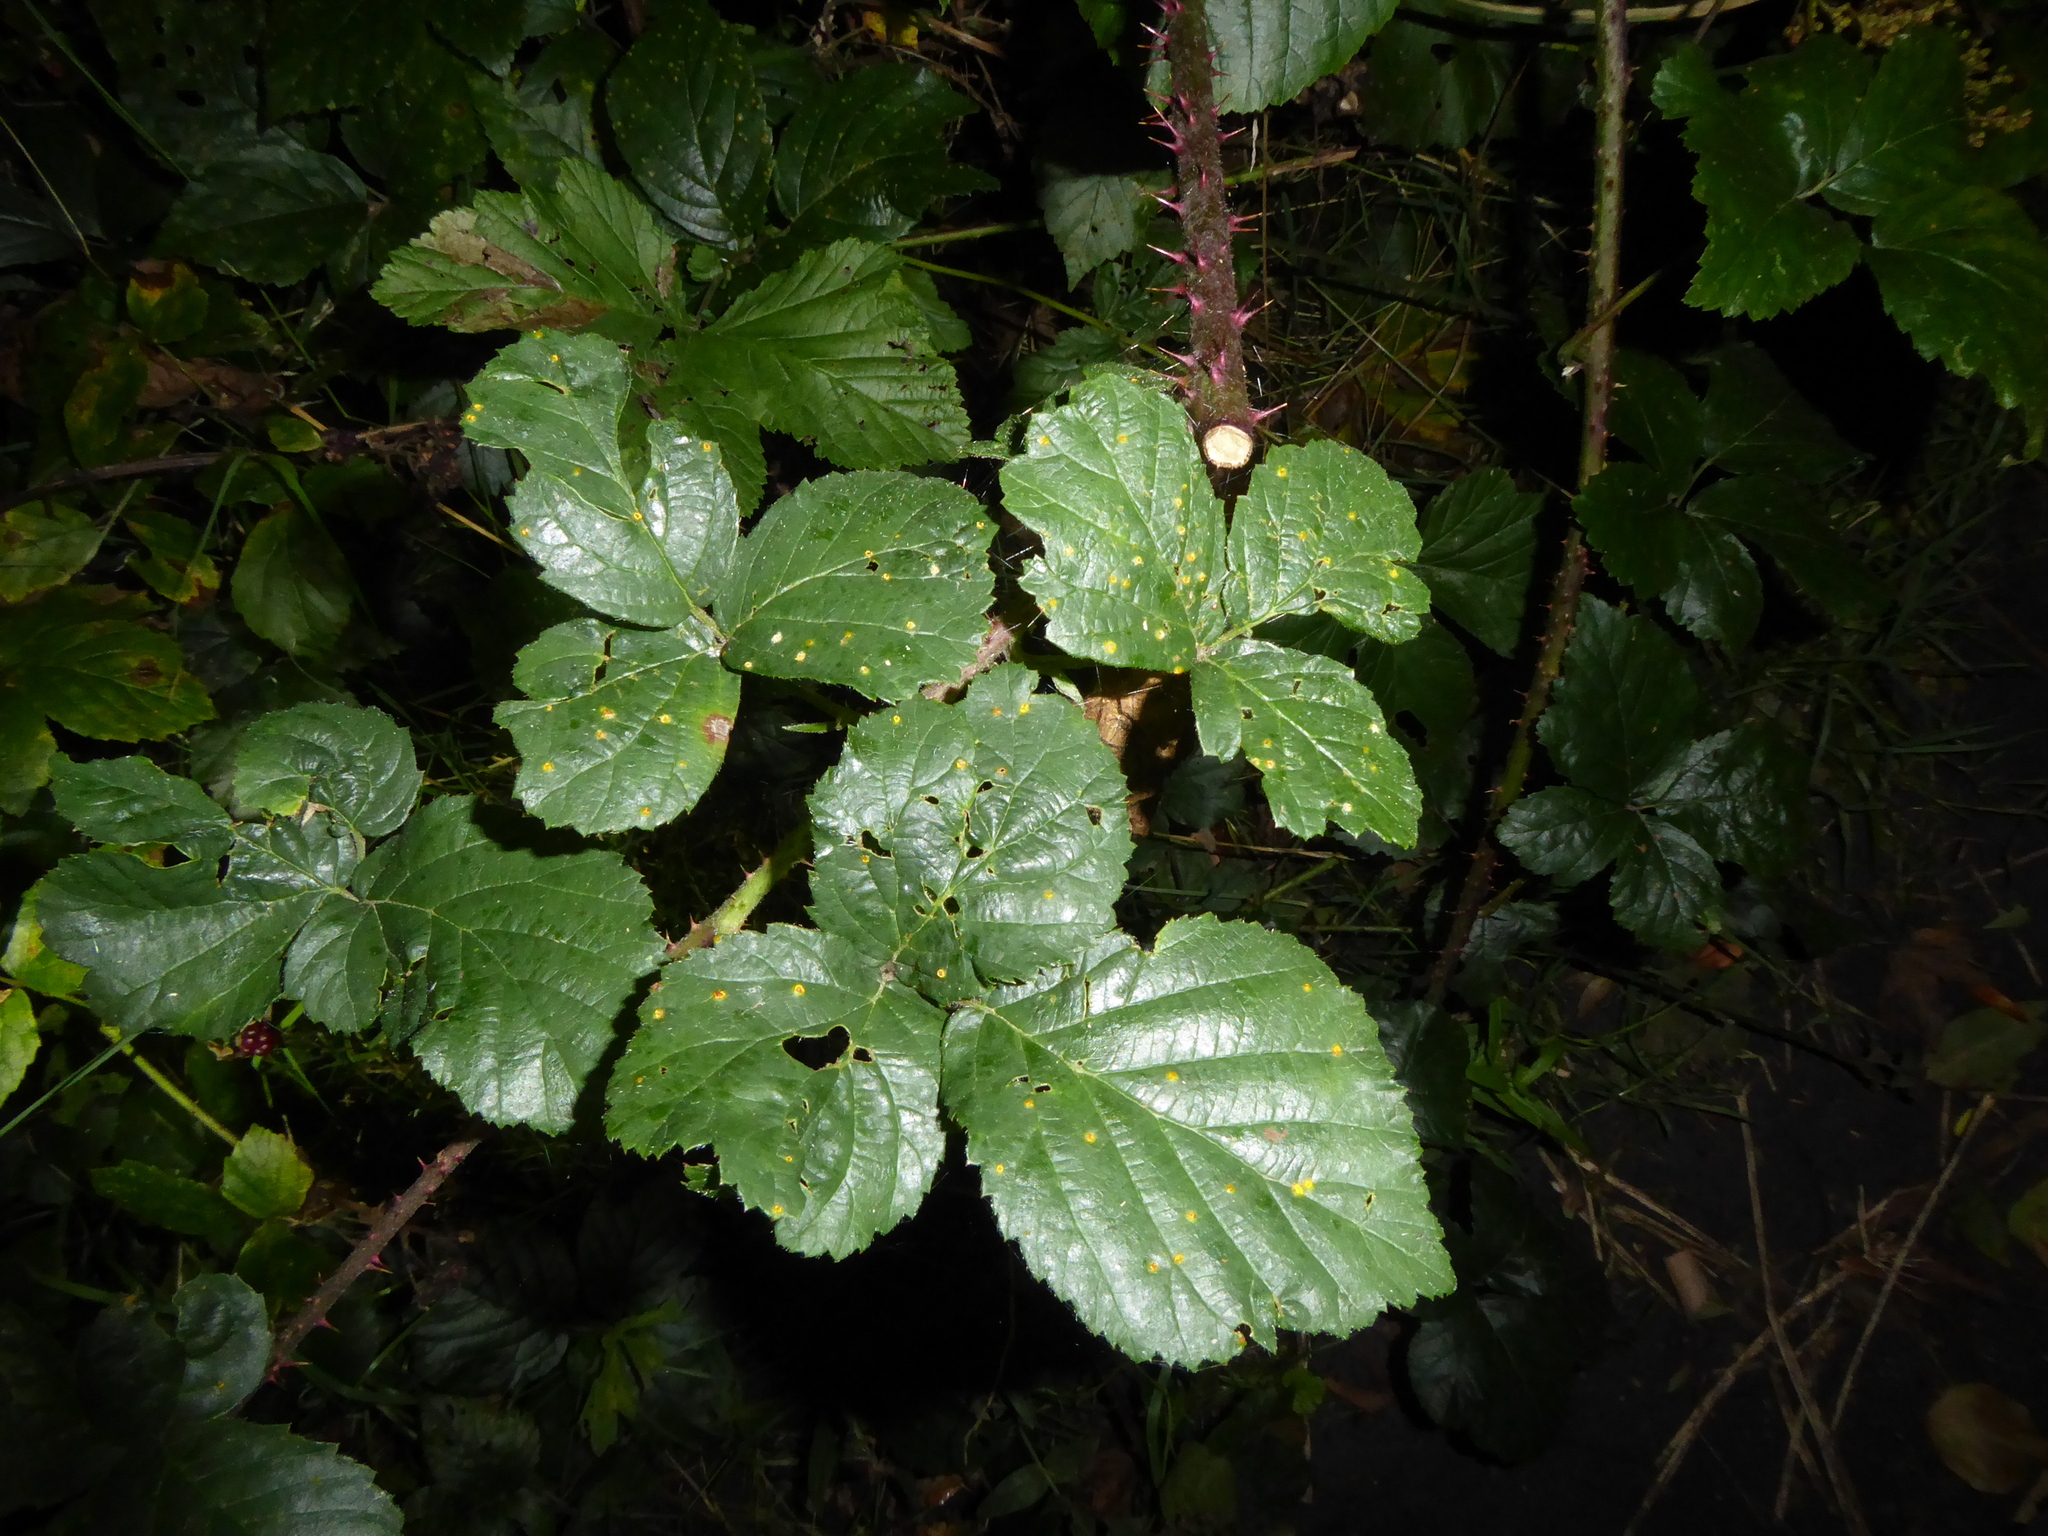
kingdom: Fungi
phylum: Basidiomycota
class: Pucciniomycetes
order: Pucciniales
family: Phragmidiaceae
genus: Kuehneola
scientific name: Kuehneola uredinis
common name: Bramble stem rust
